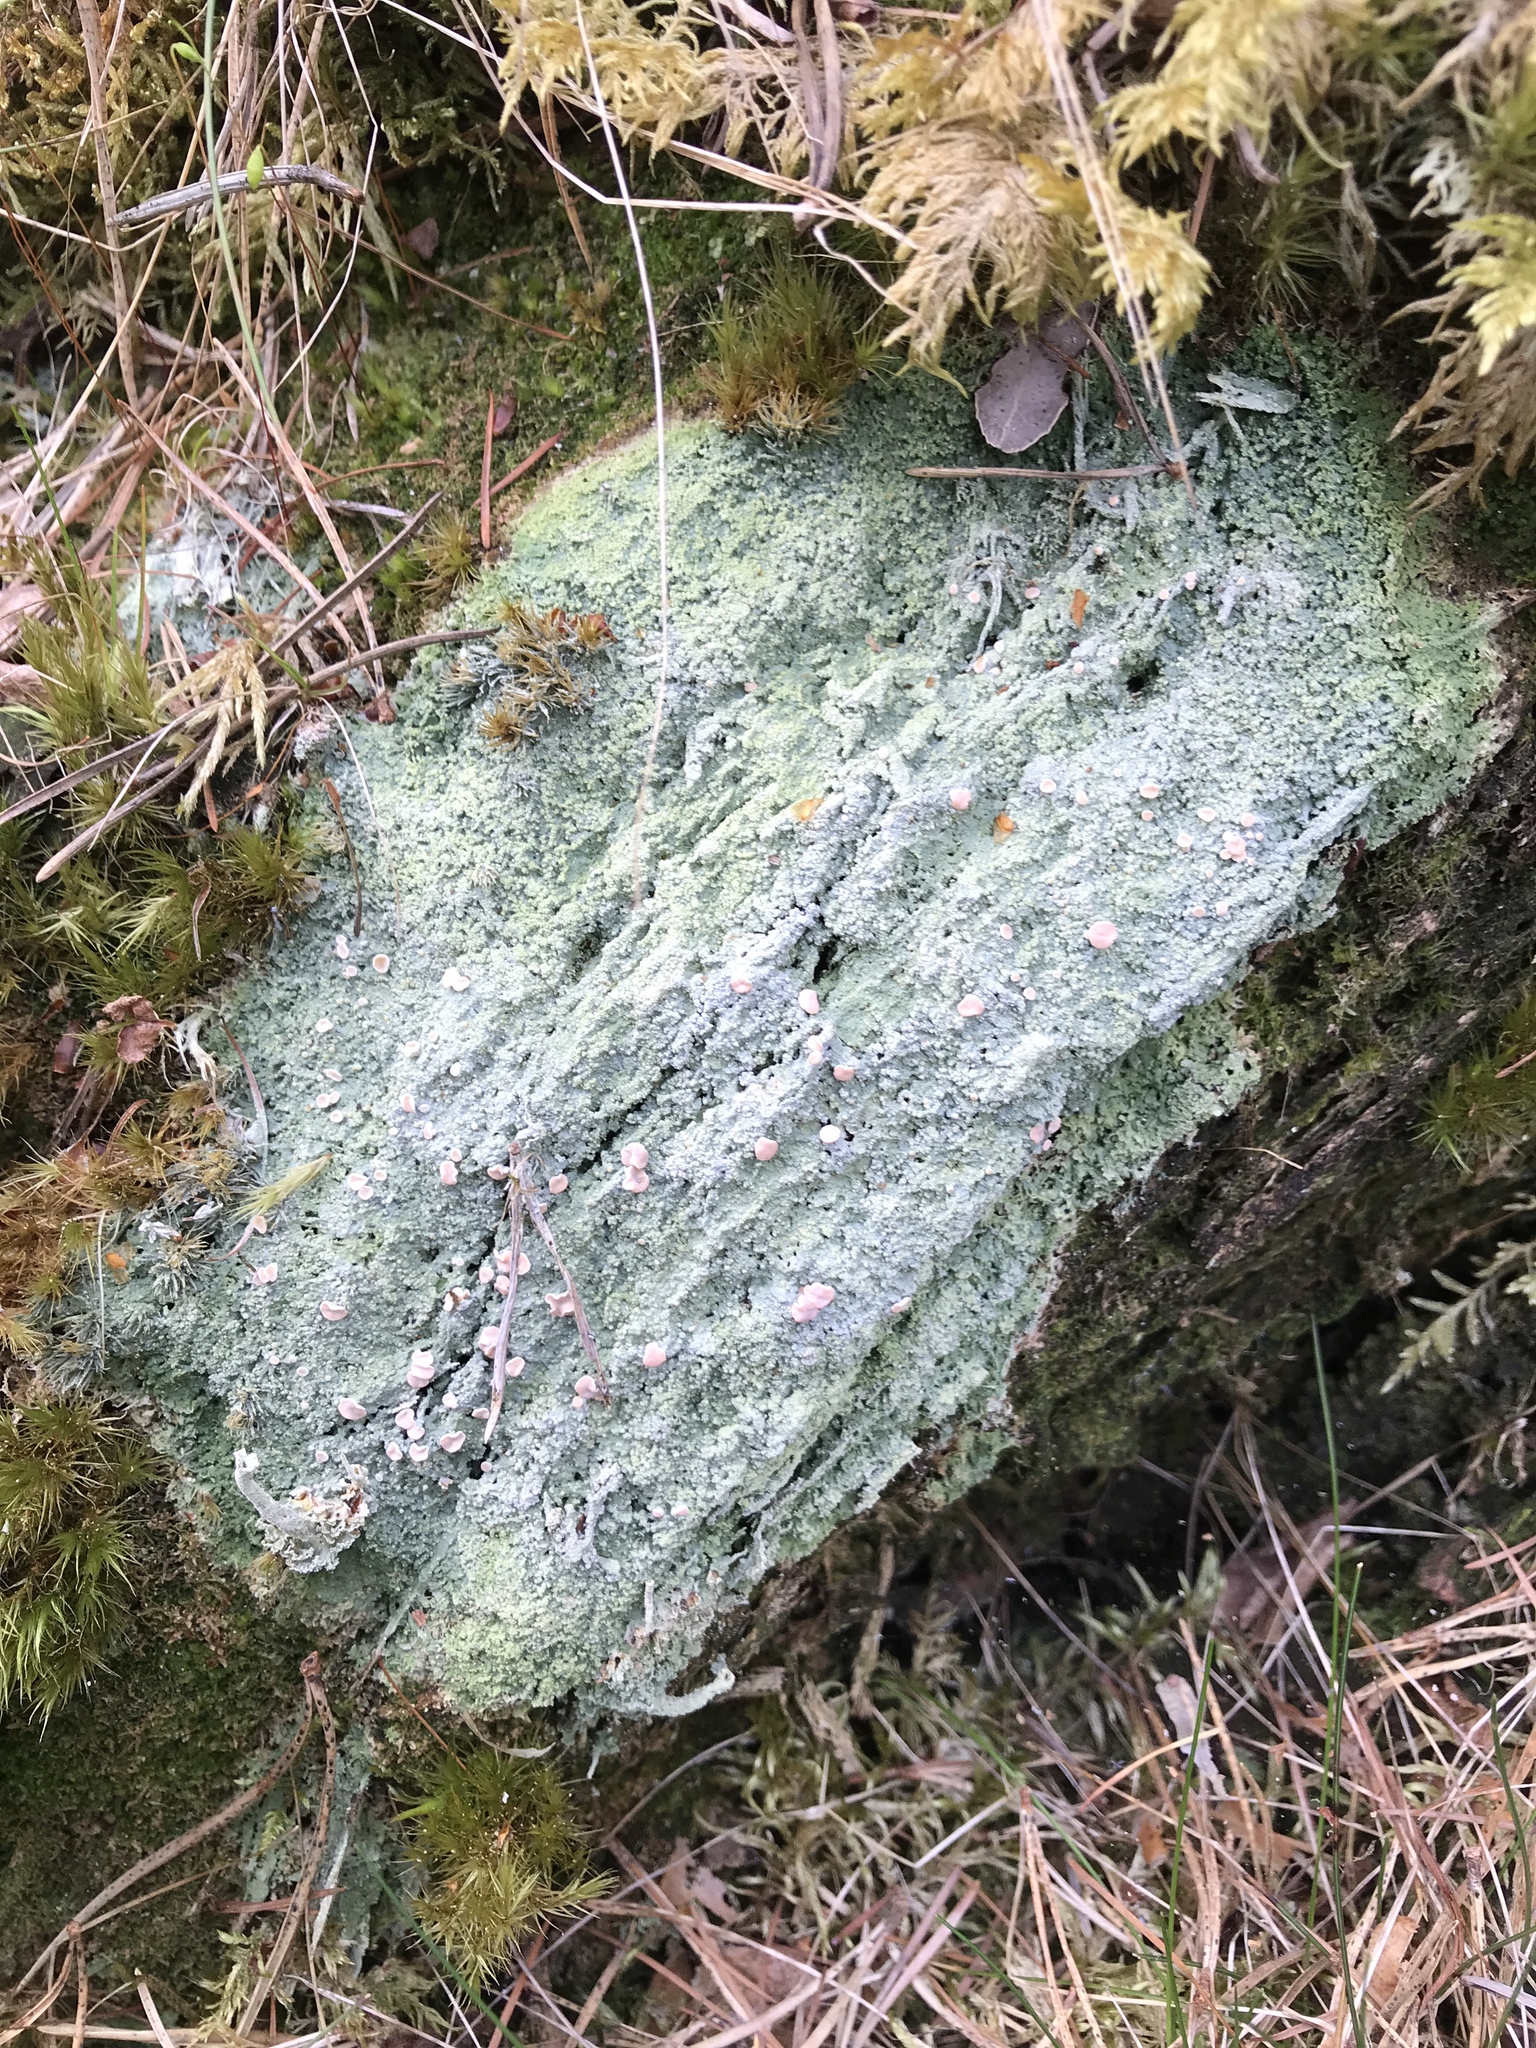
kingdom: Fungi
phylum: Ascomycota
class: Lecanoromycetes
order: Pertusariales
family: Icmadophilaceae
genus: Icmadophila
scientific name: Icmadophila ericetorum
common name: Candy lichen
